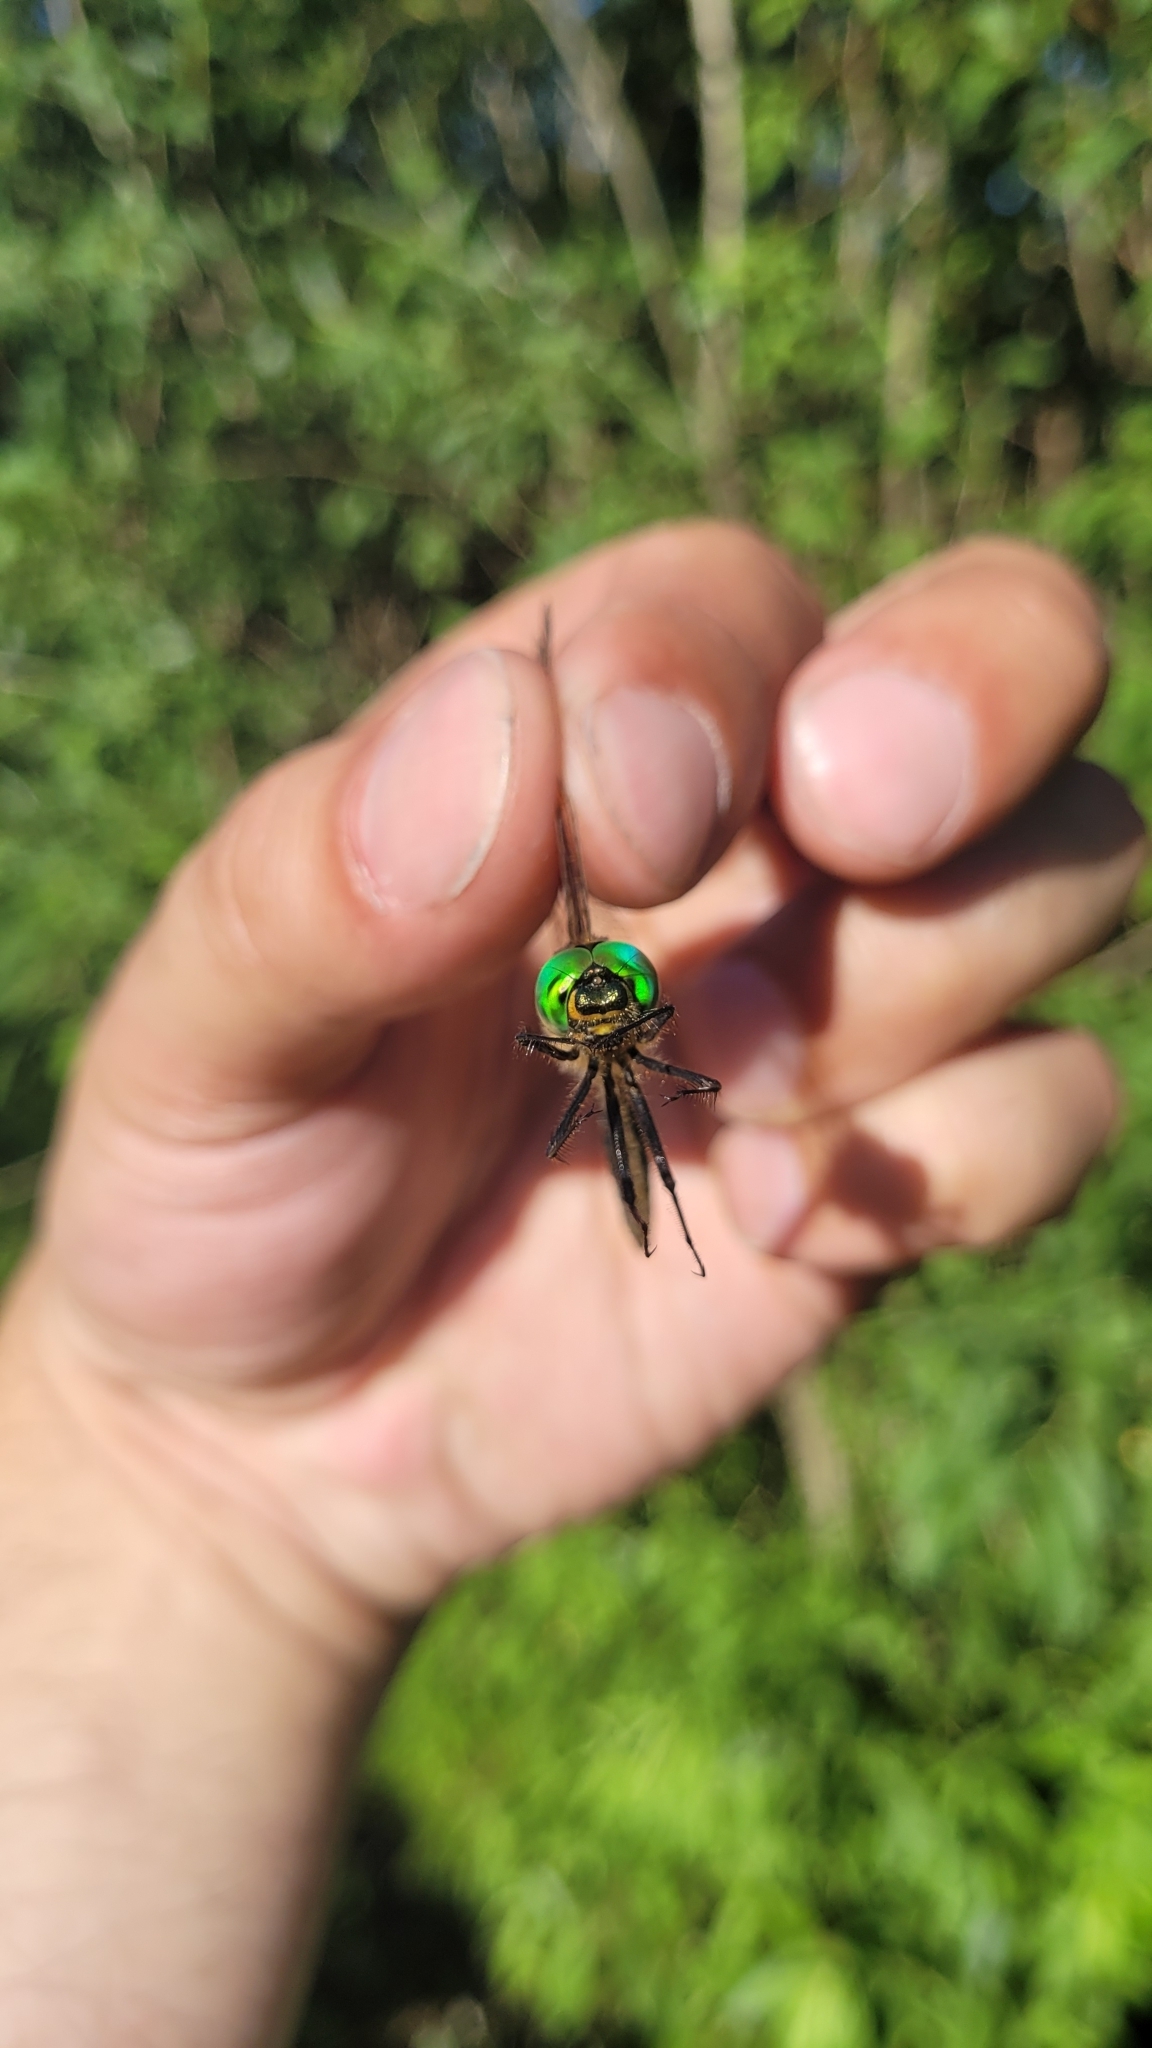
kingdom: Animalia
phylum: Arthropoda
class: Insecta
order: Odonata
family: Corduliidae
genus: Somatochlora
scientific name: Somatochlora metallica
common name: Brilliant emerald
